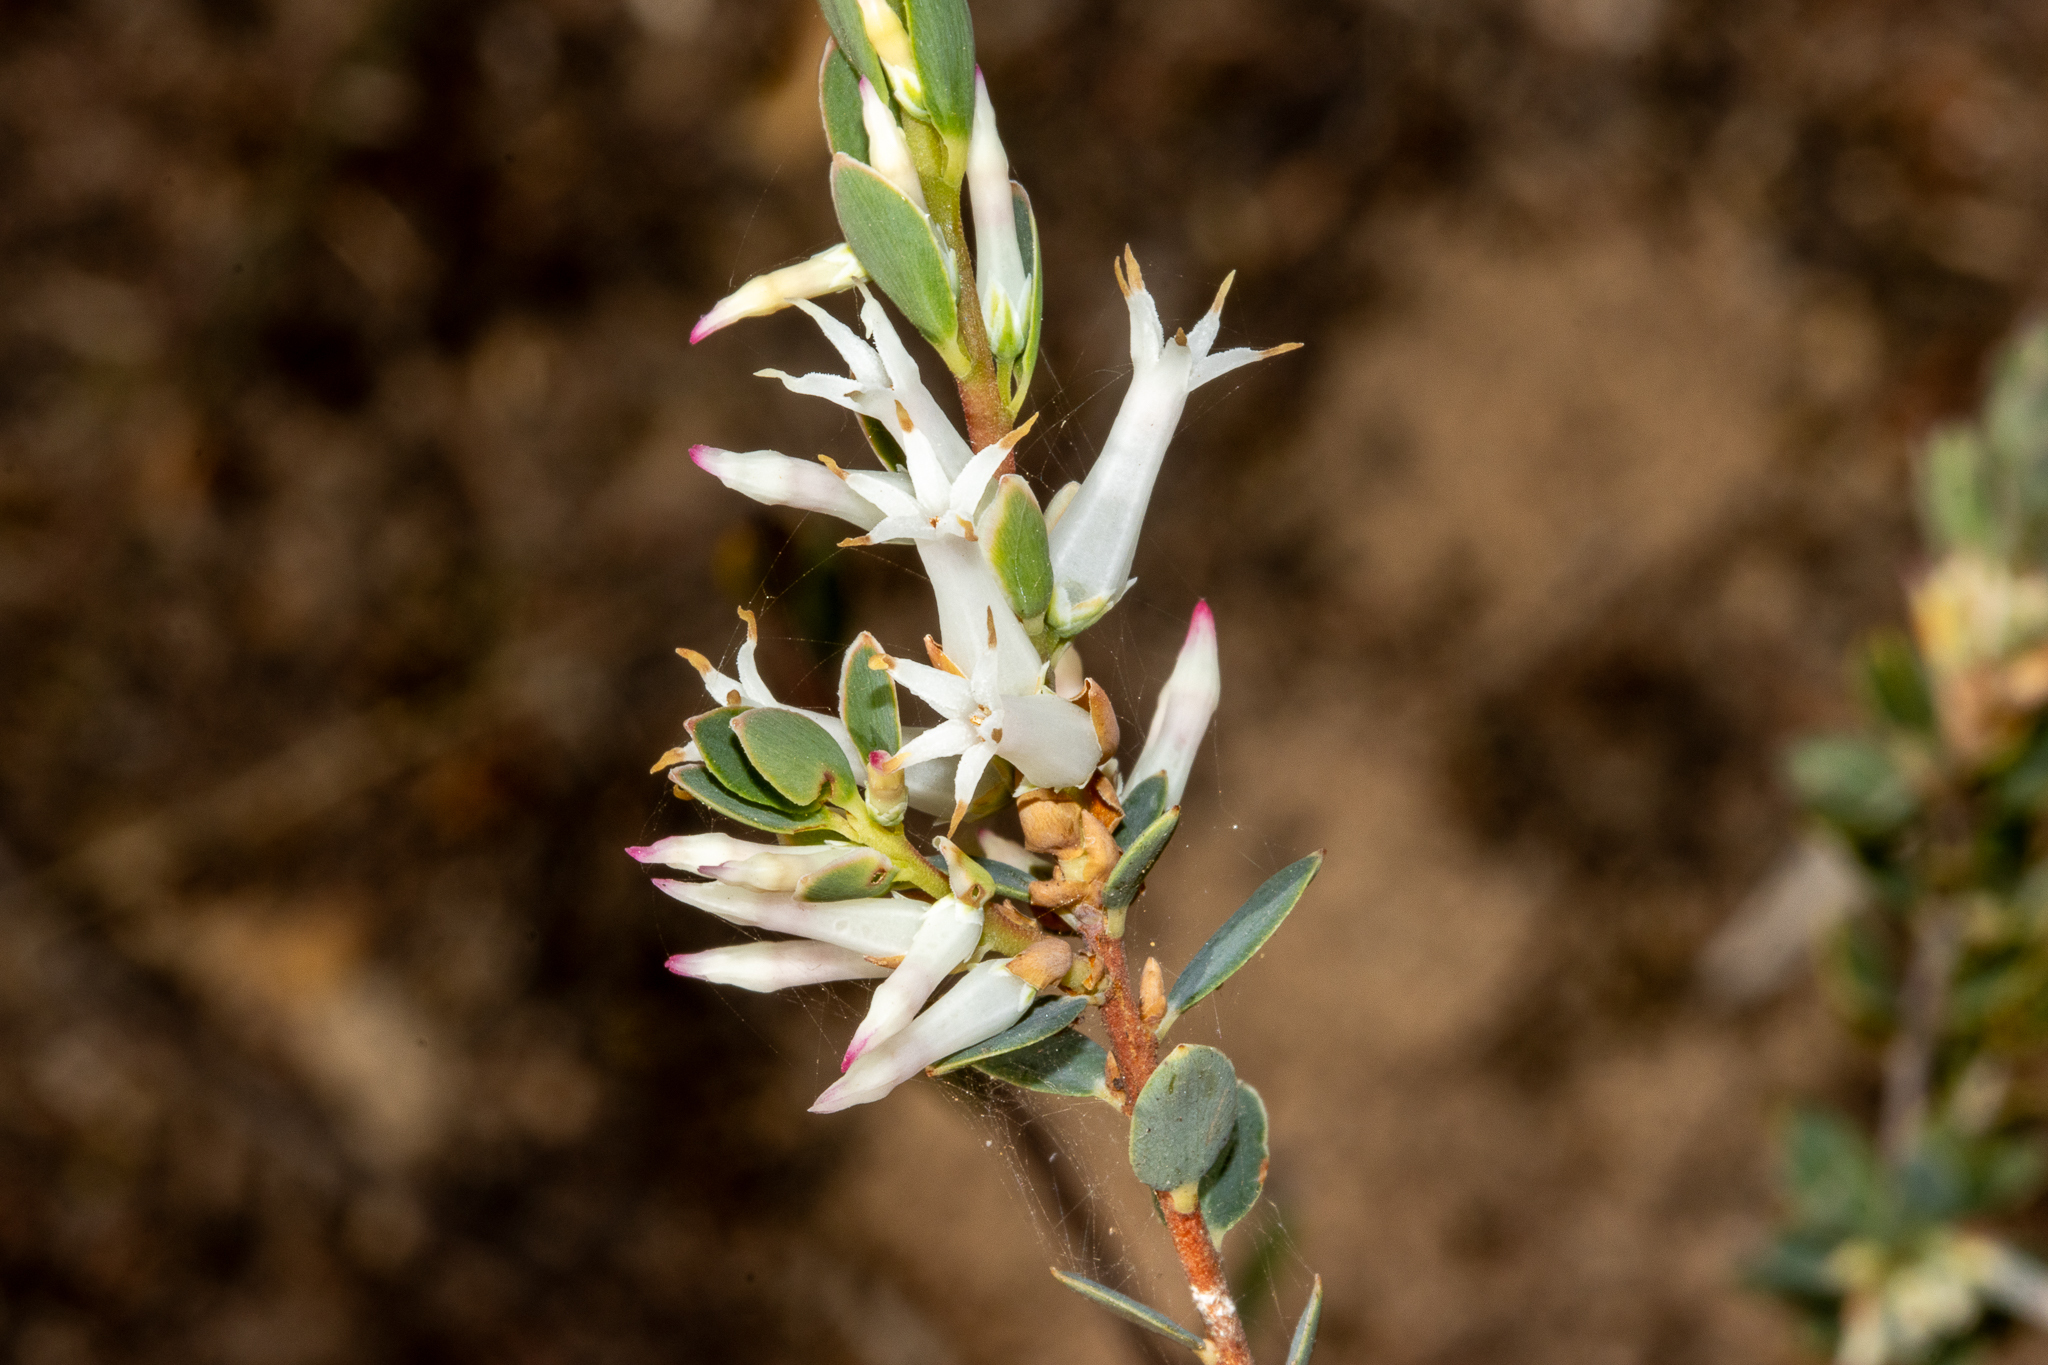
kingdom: Plantae
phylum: Tracheophyta
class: Magnoliopsida
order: Ericales
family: Ericaceae
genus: Brachyloma
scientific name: Brachyloma daphnoides
